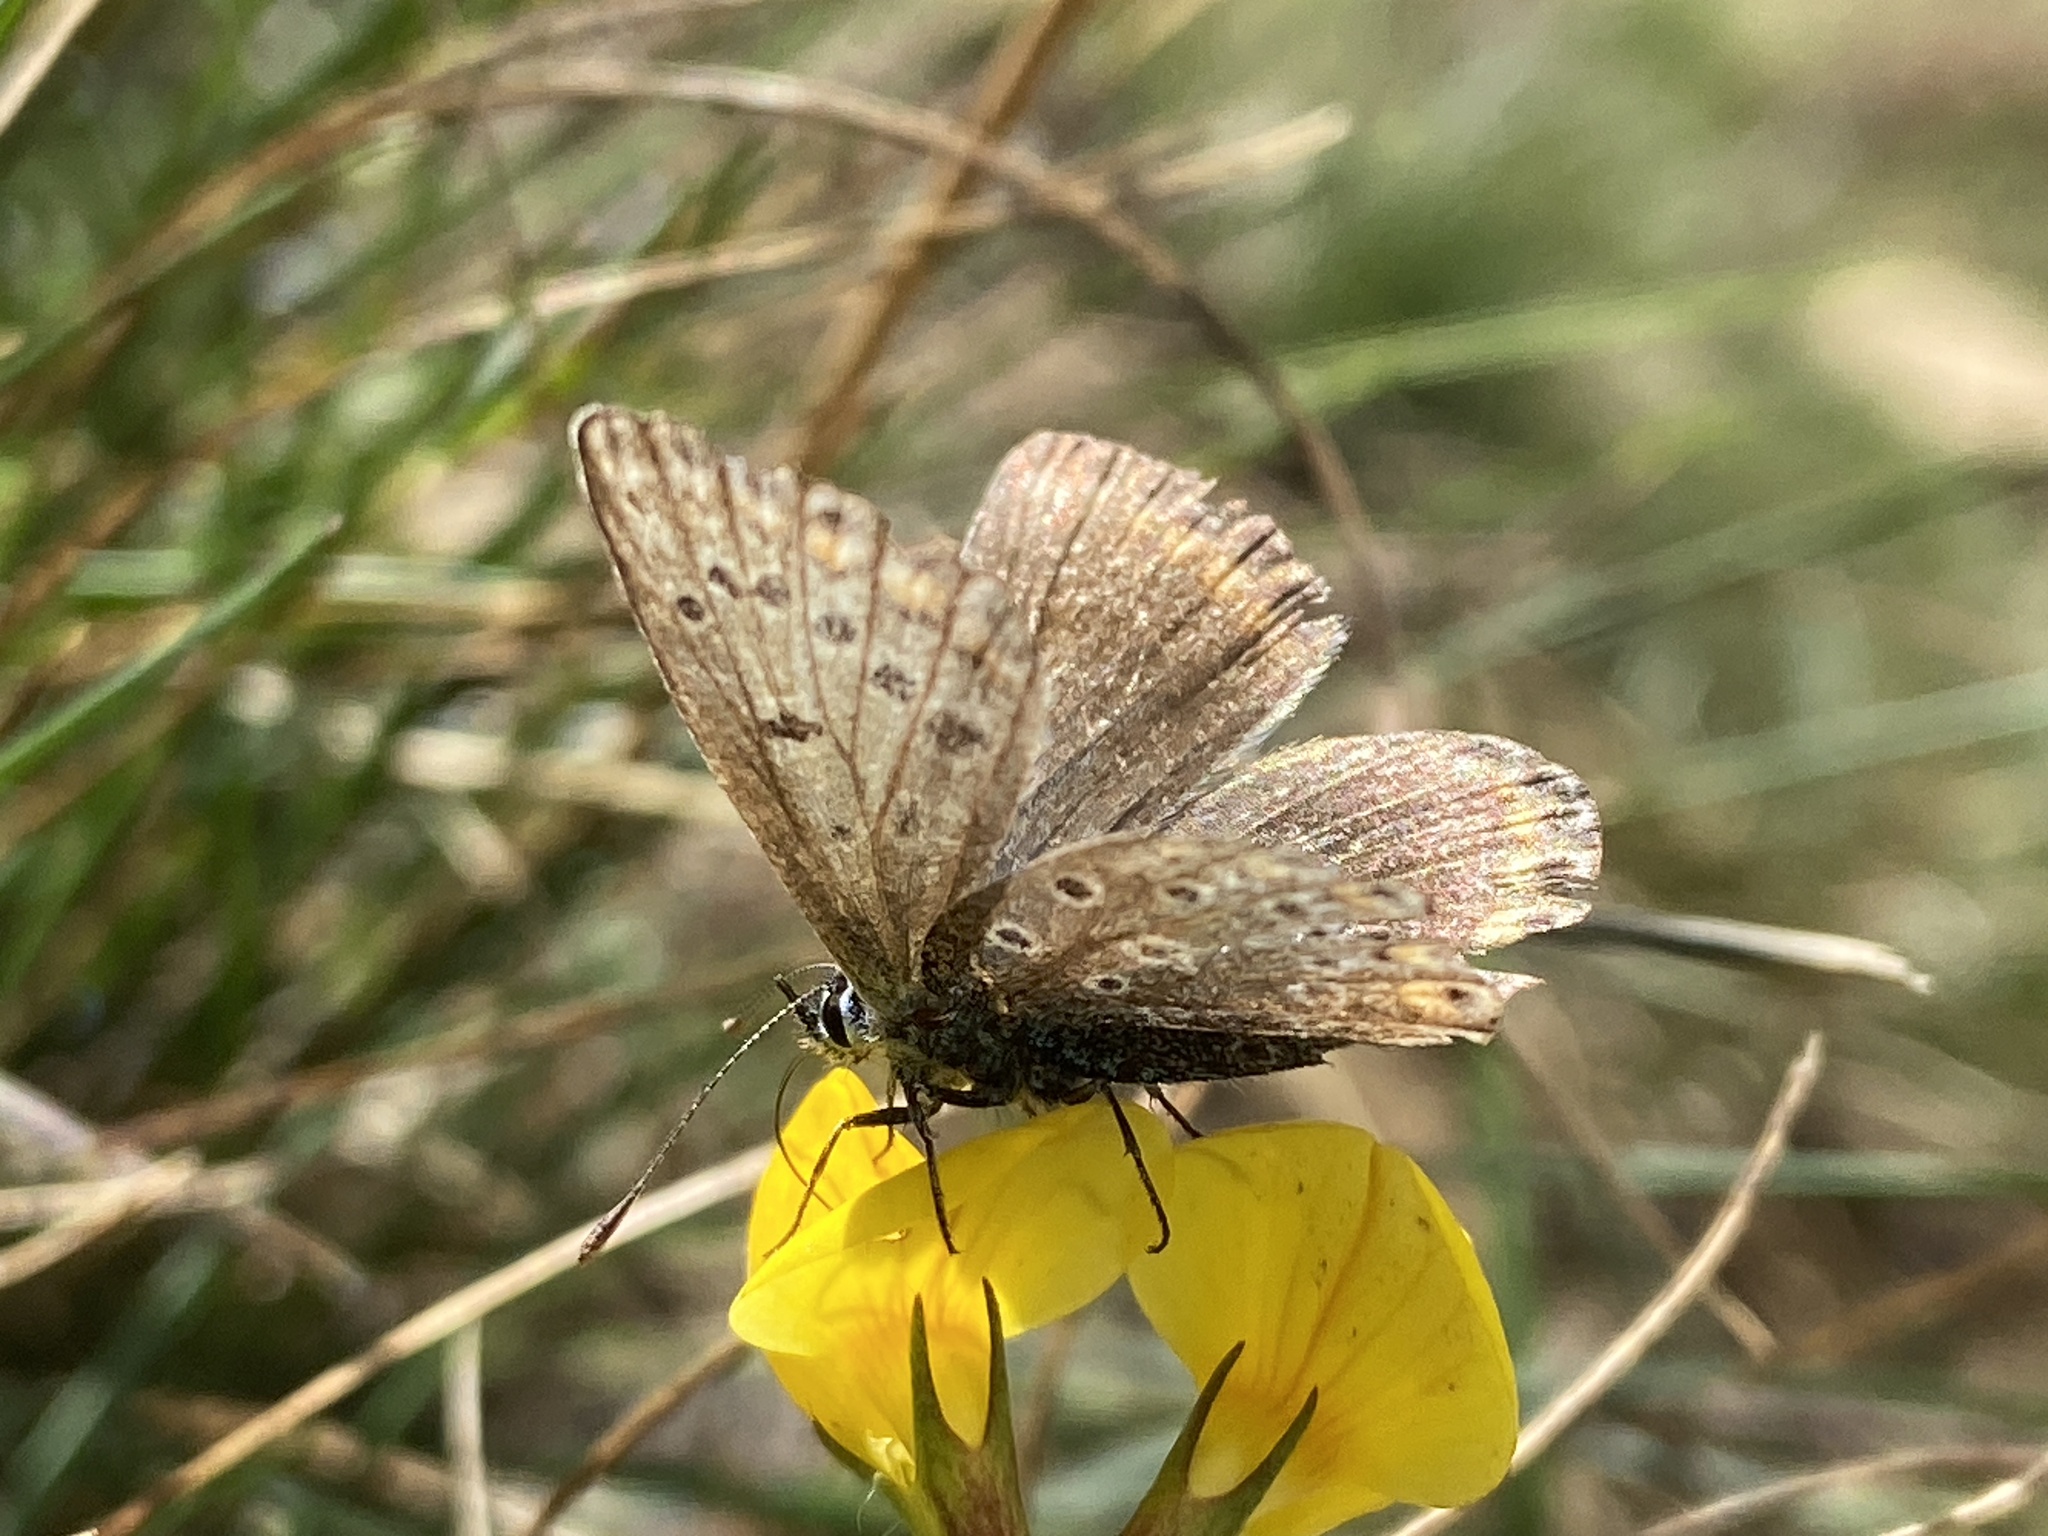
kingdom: Animalia
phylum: Arthropoda
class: Insecta
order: Lepidoptera
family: Lycaenidae
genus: Polyommatus
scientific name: Polyommatus icarus
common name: Common blue
